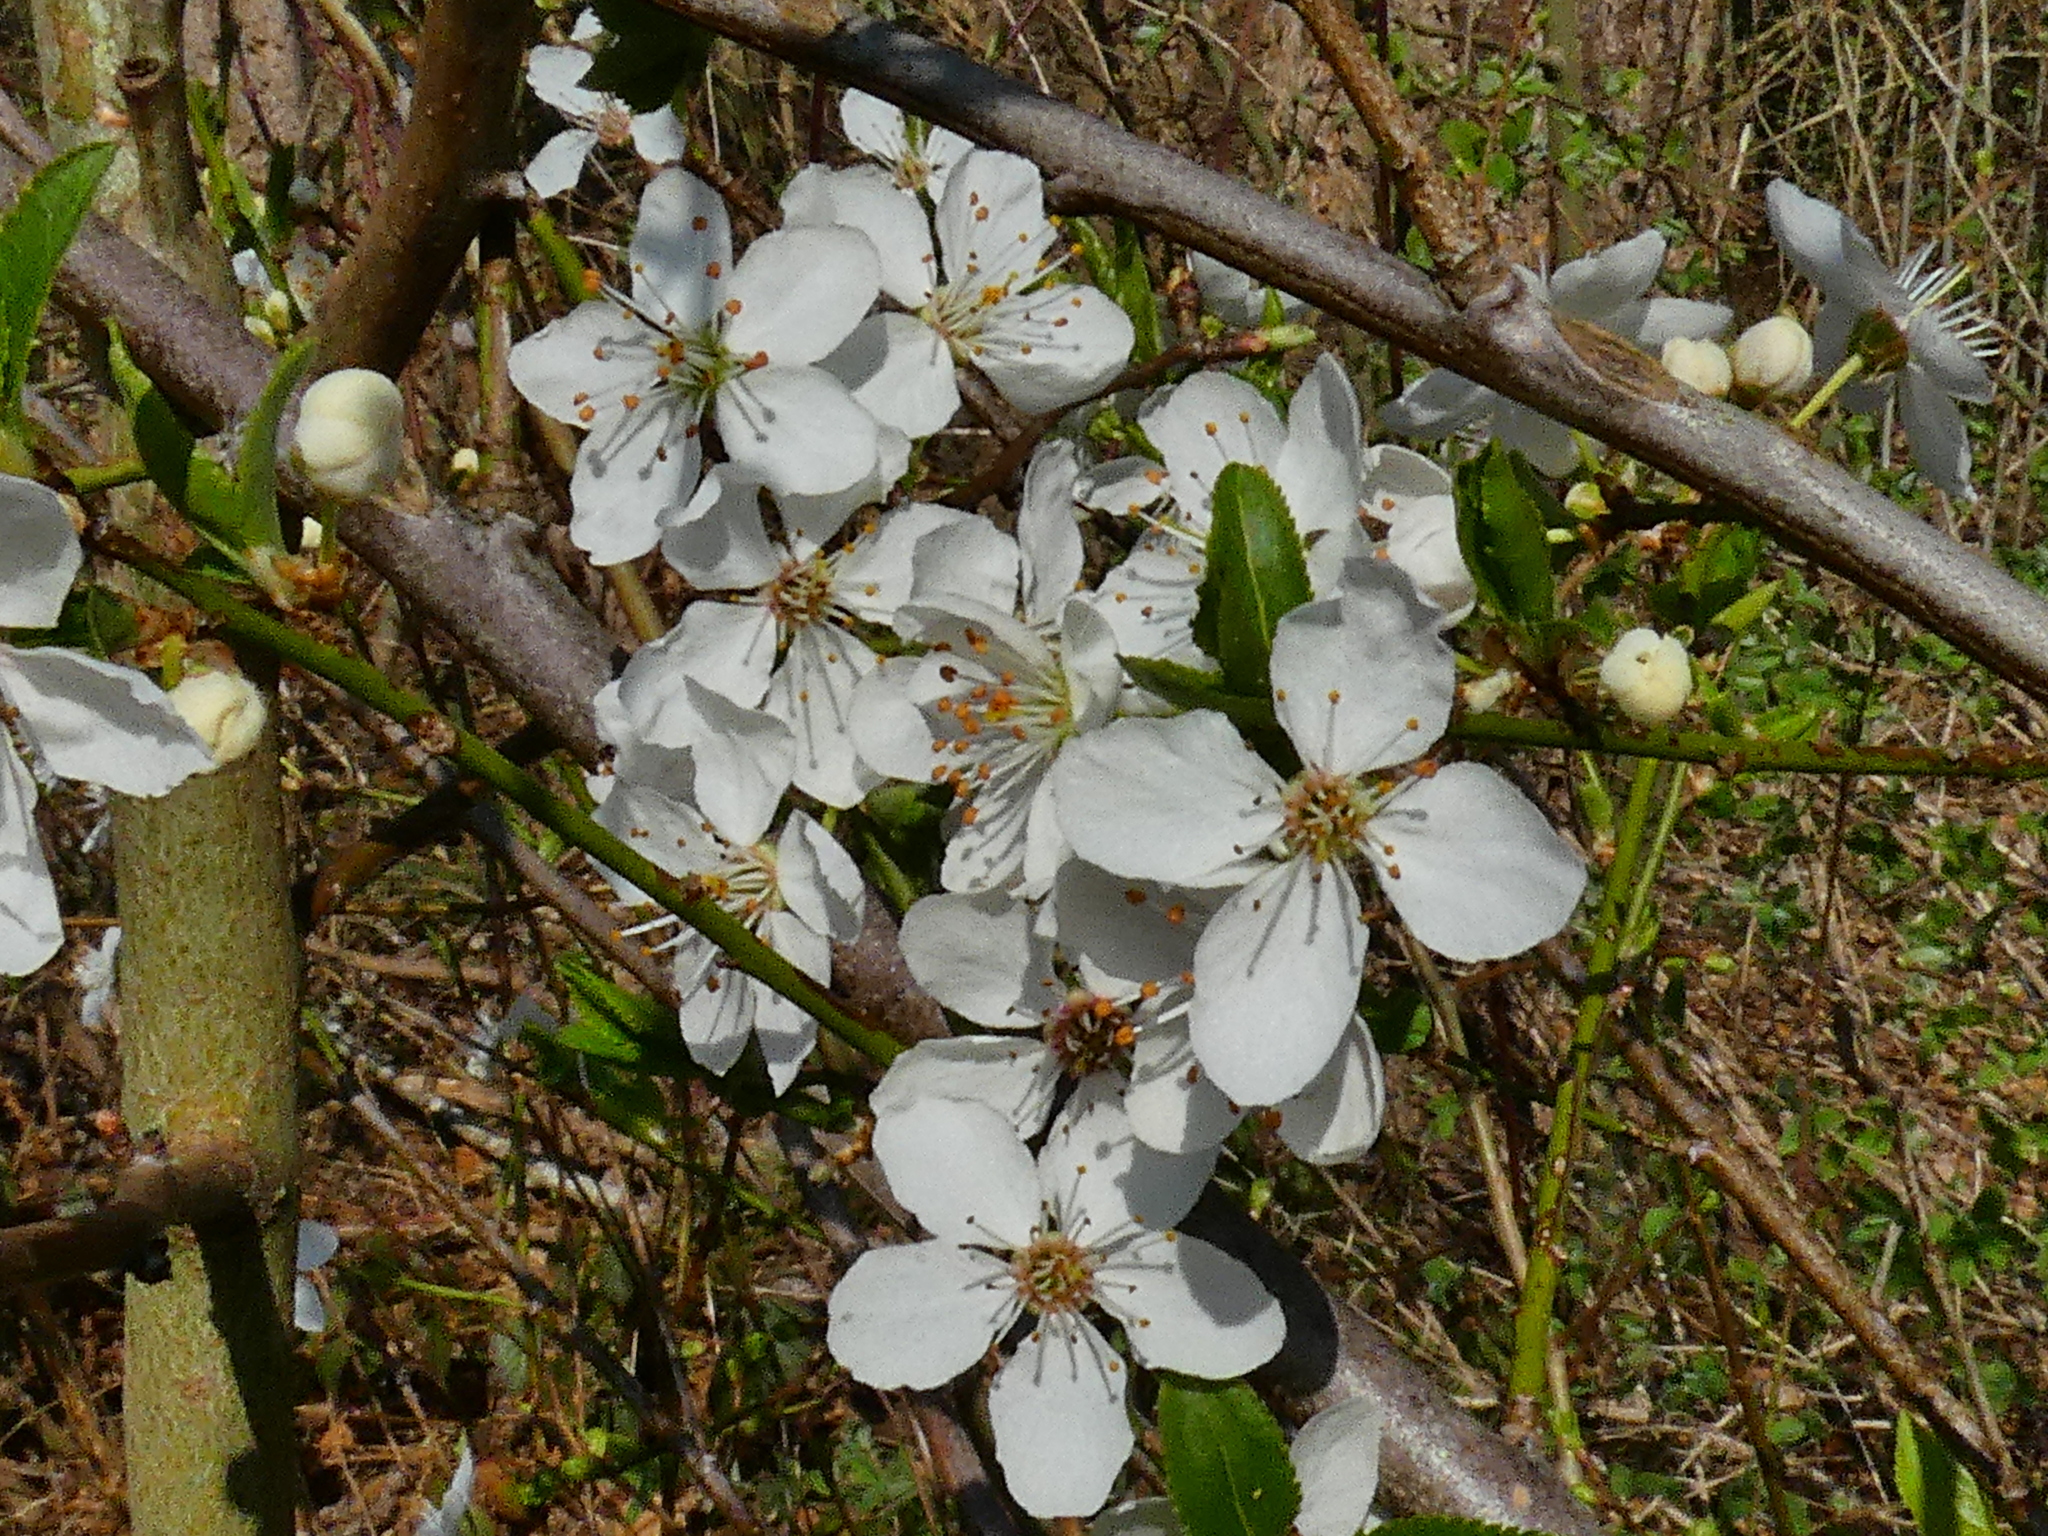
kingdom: Plantae
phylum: Tracheophyta
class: Magnoliopsida
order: Rosales
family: Rosaceae
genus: Prunus
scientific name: Prunus cerasifera
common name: Cherry plum
